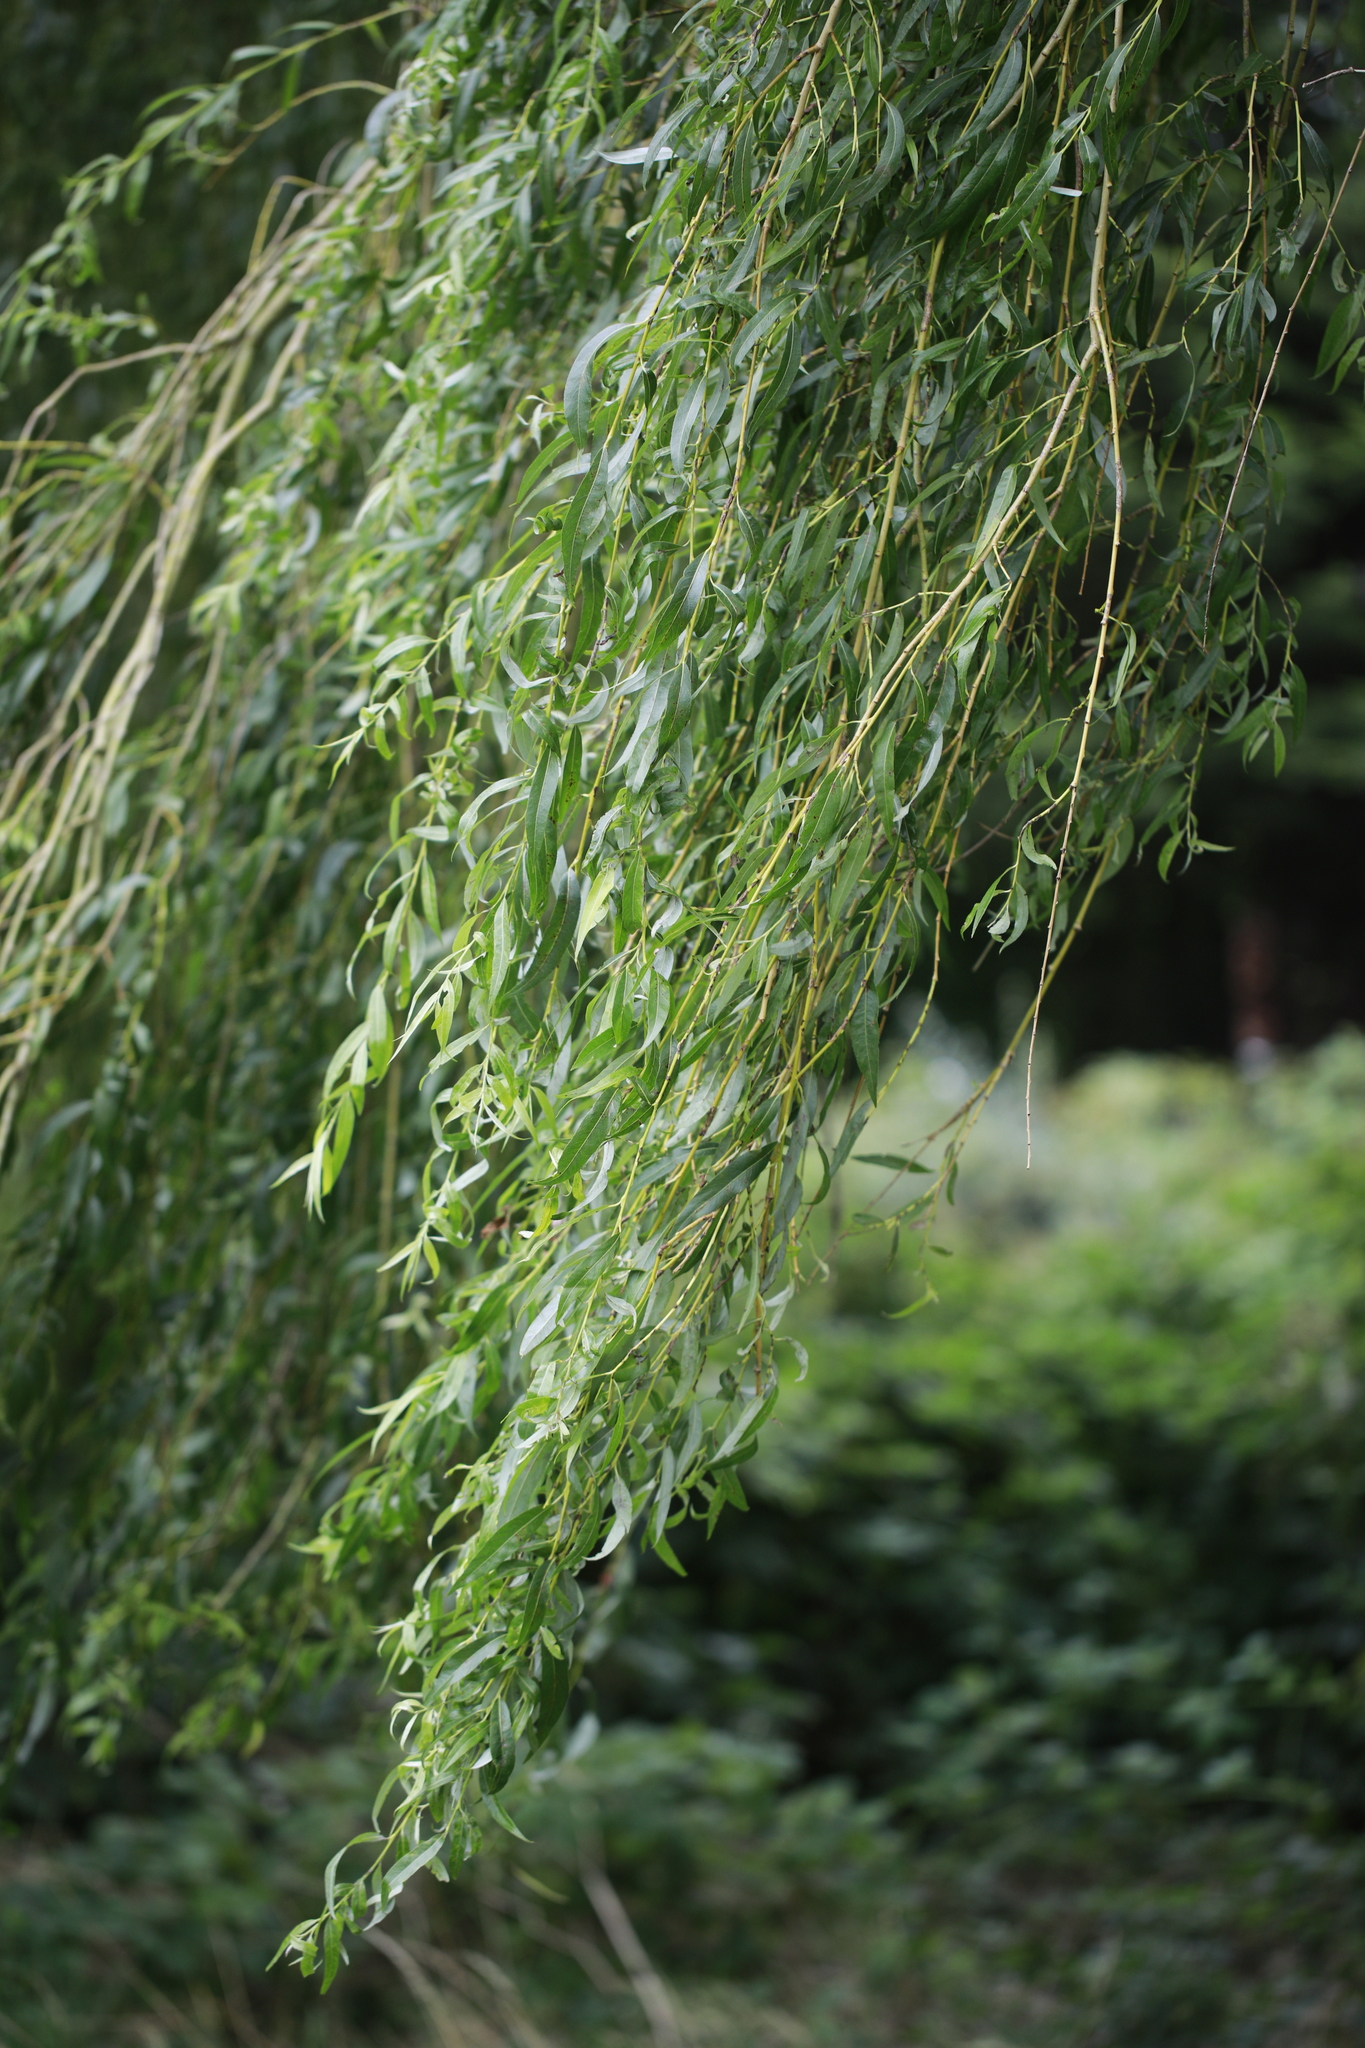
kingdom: Plantae
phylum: Tracheophyta
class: Magnoliopsida
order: Malpighiales
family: Salicaceae
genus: Salix
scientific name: Salix pendulina
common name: Wisconsin weeping willow
